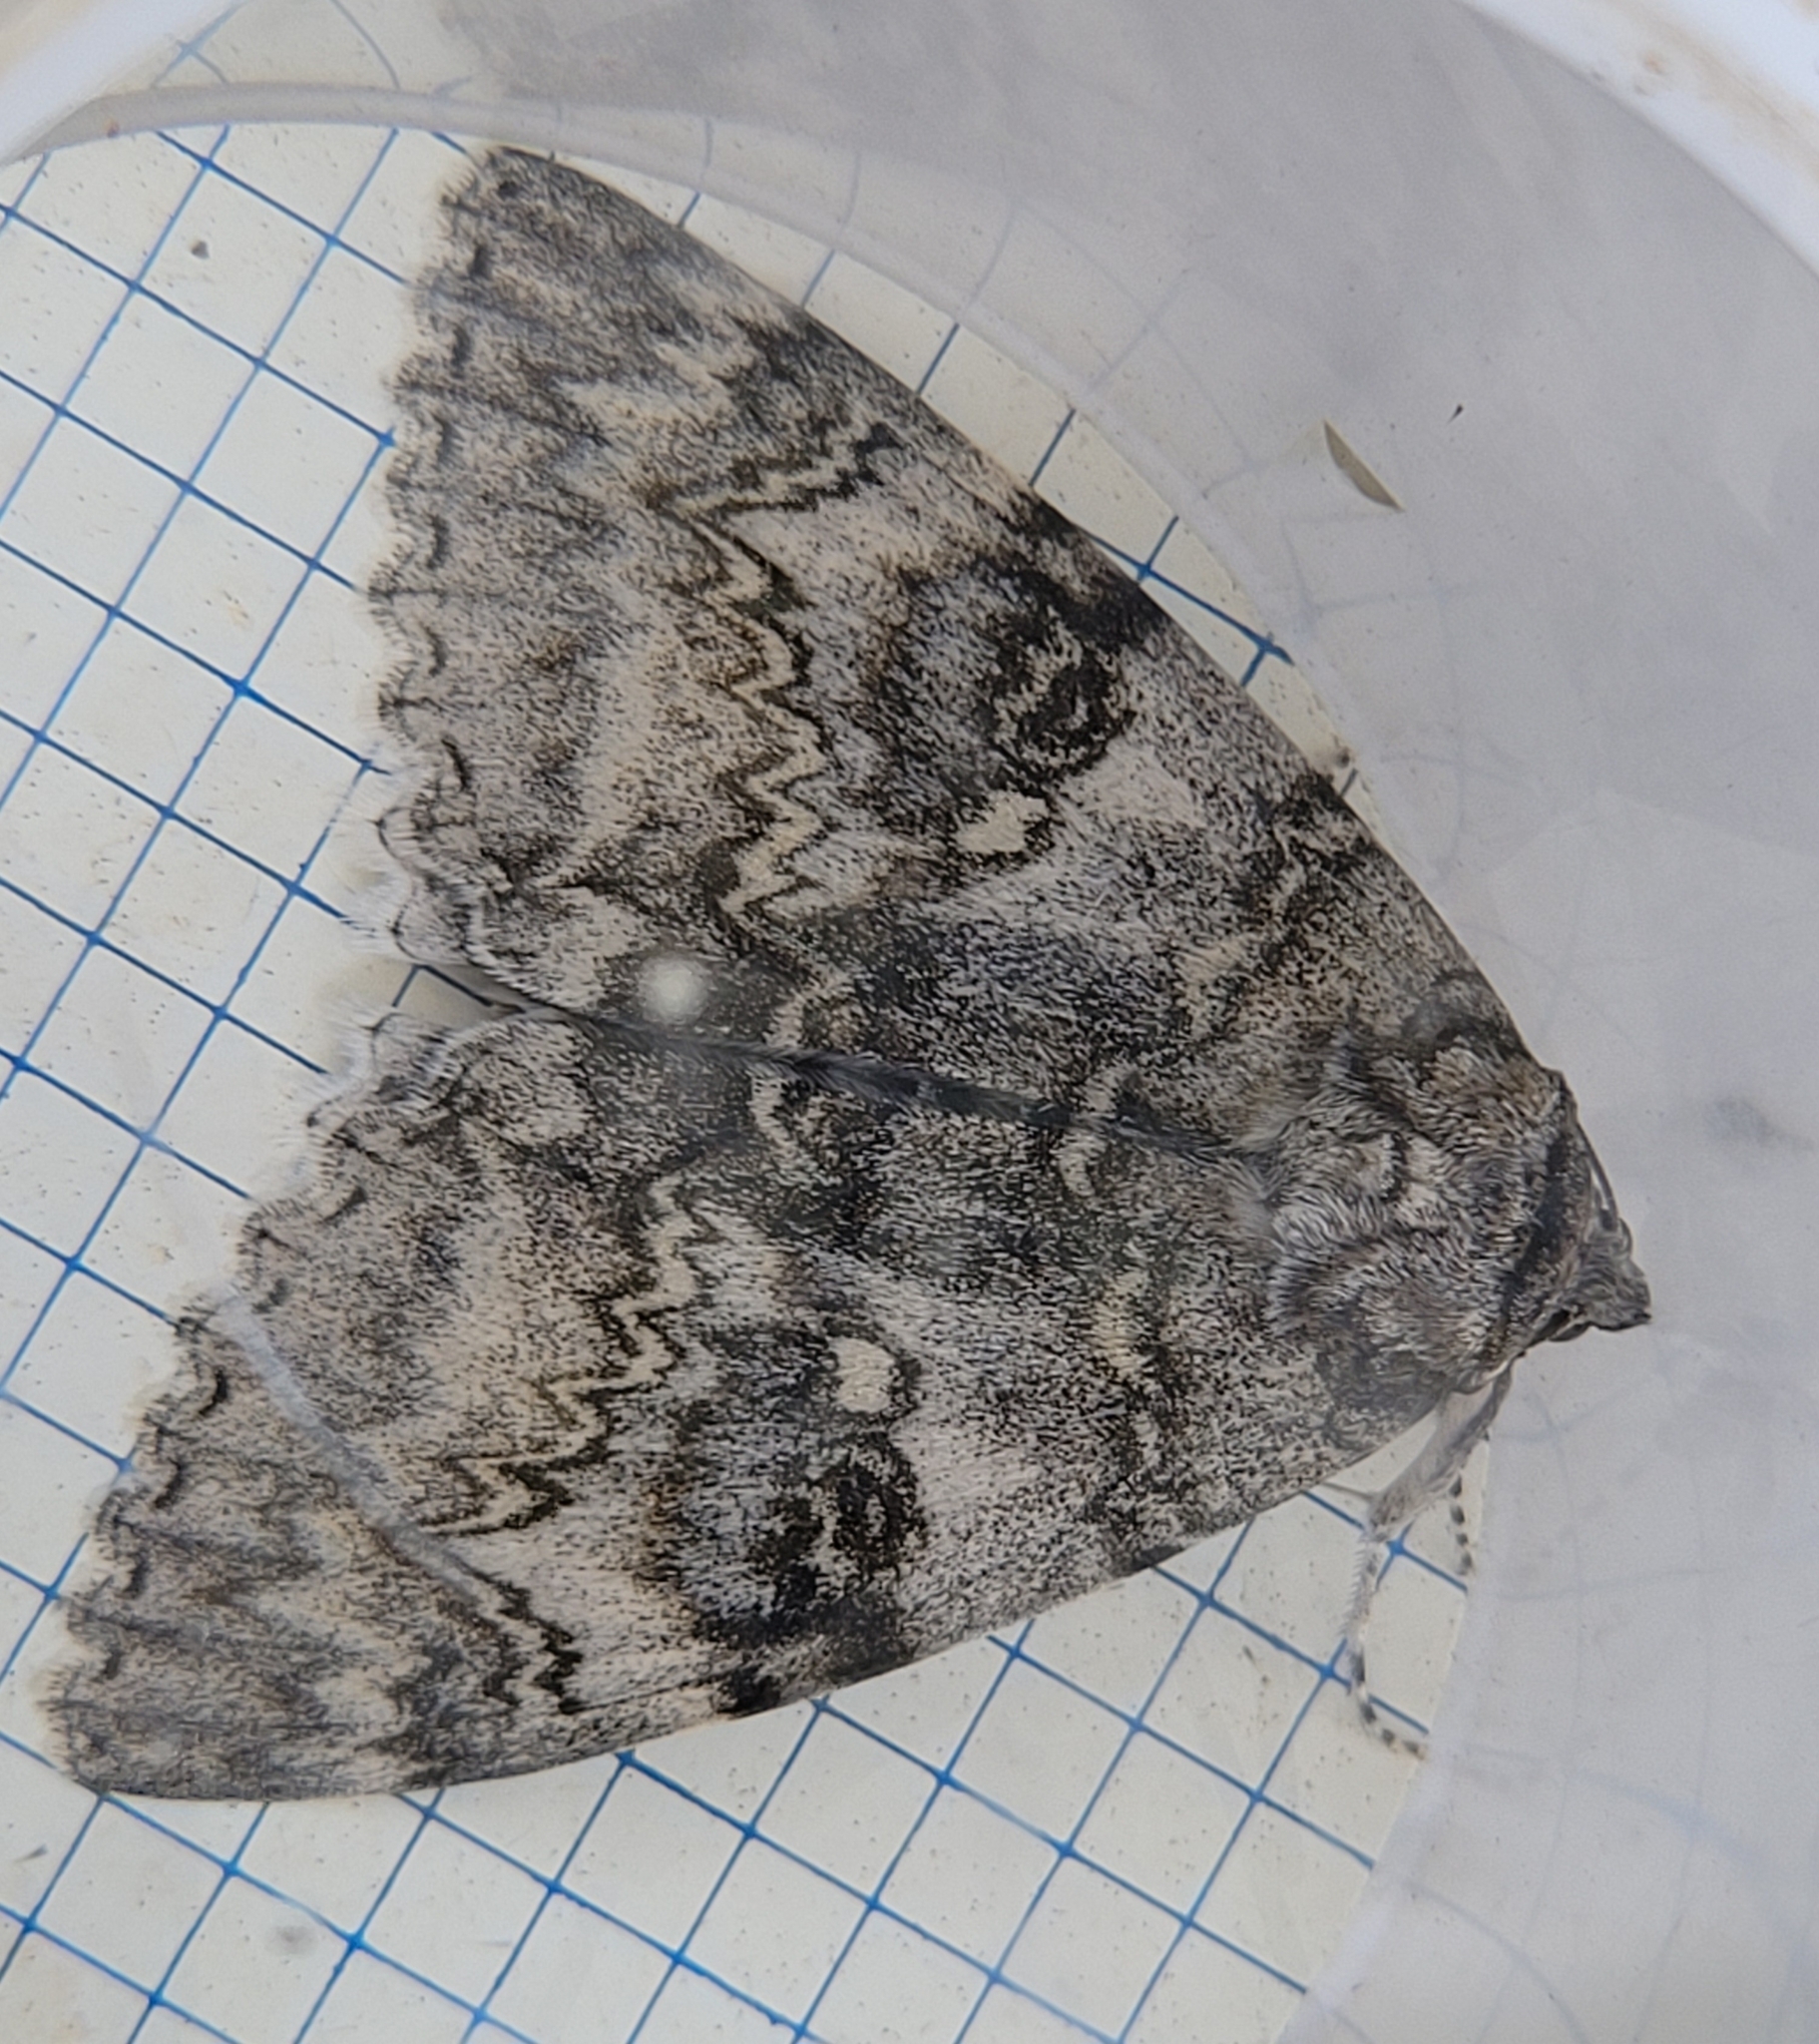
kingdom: Animalia
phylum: Arthropoda
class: Insecta
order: Lepidoptera
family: Erebidae
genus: Catocala
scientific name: Catocala fraxini
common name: Clifden nonpareil
